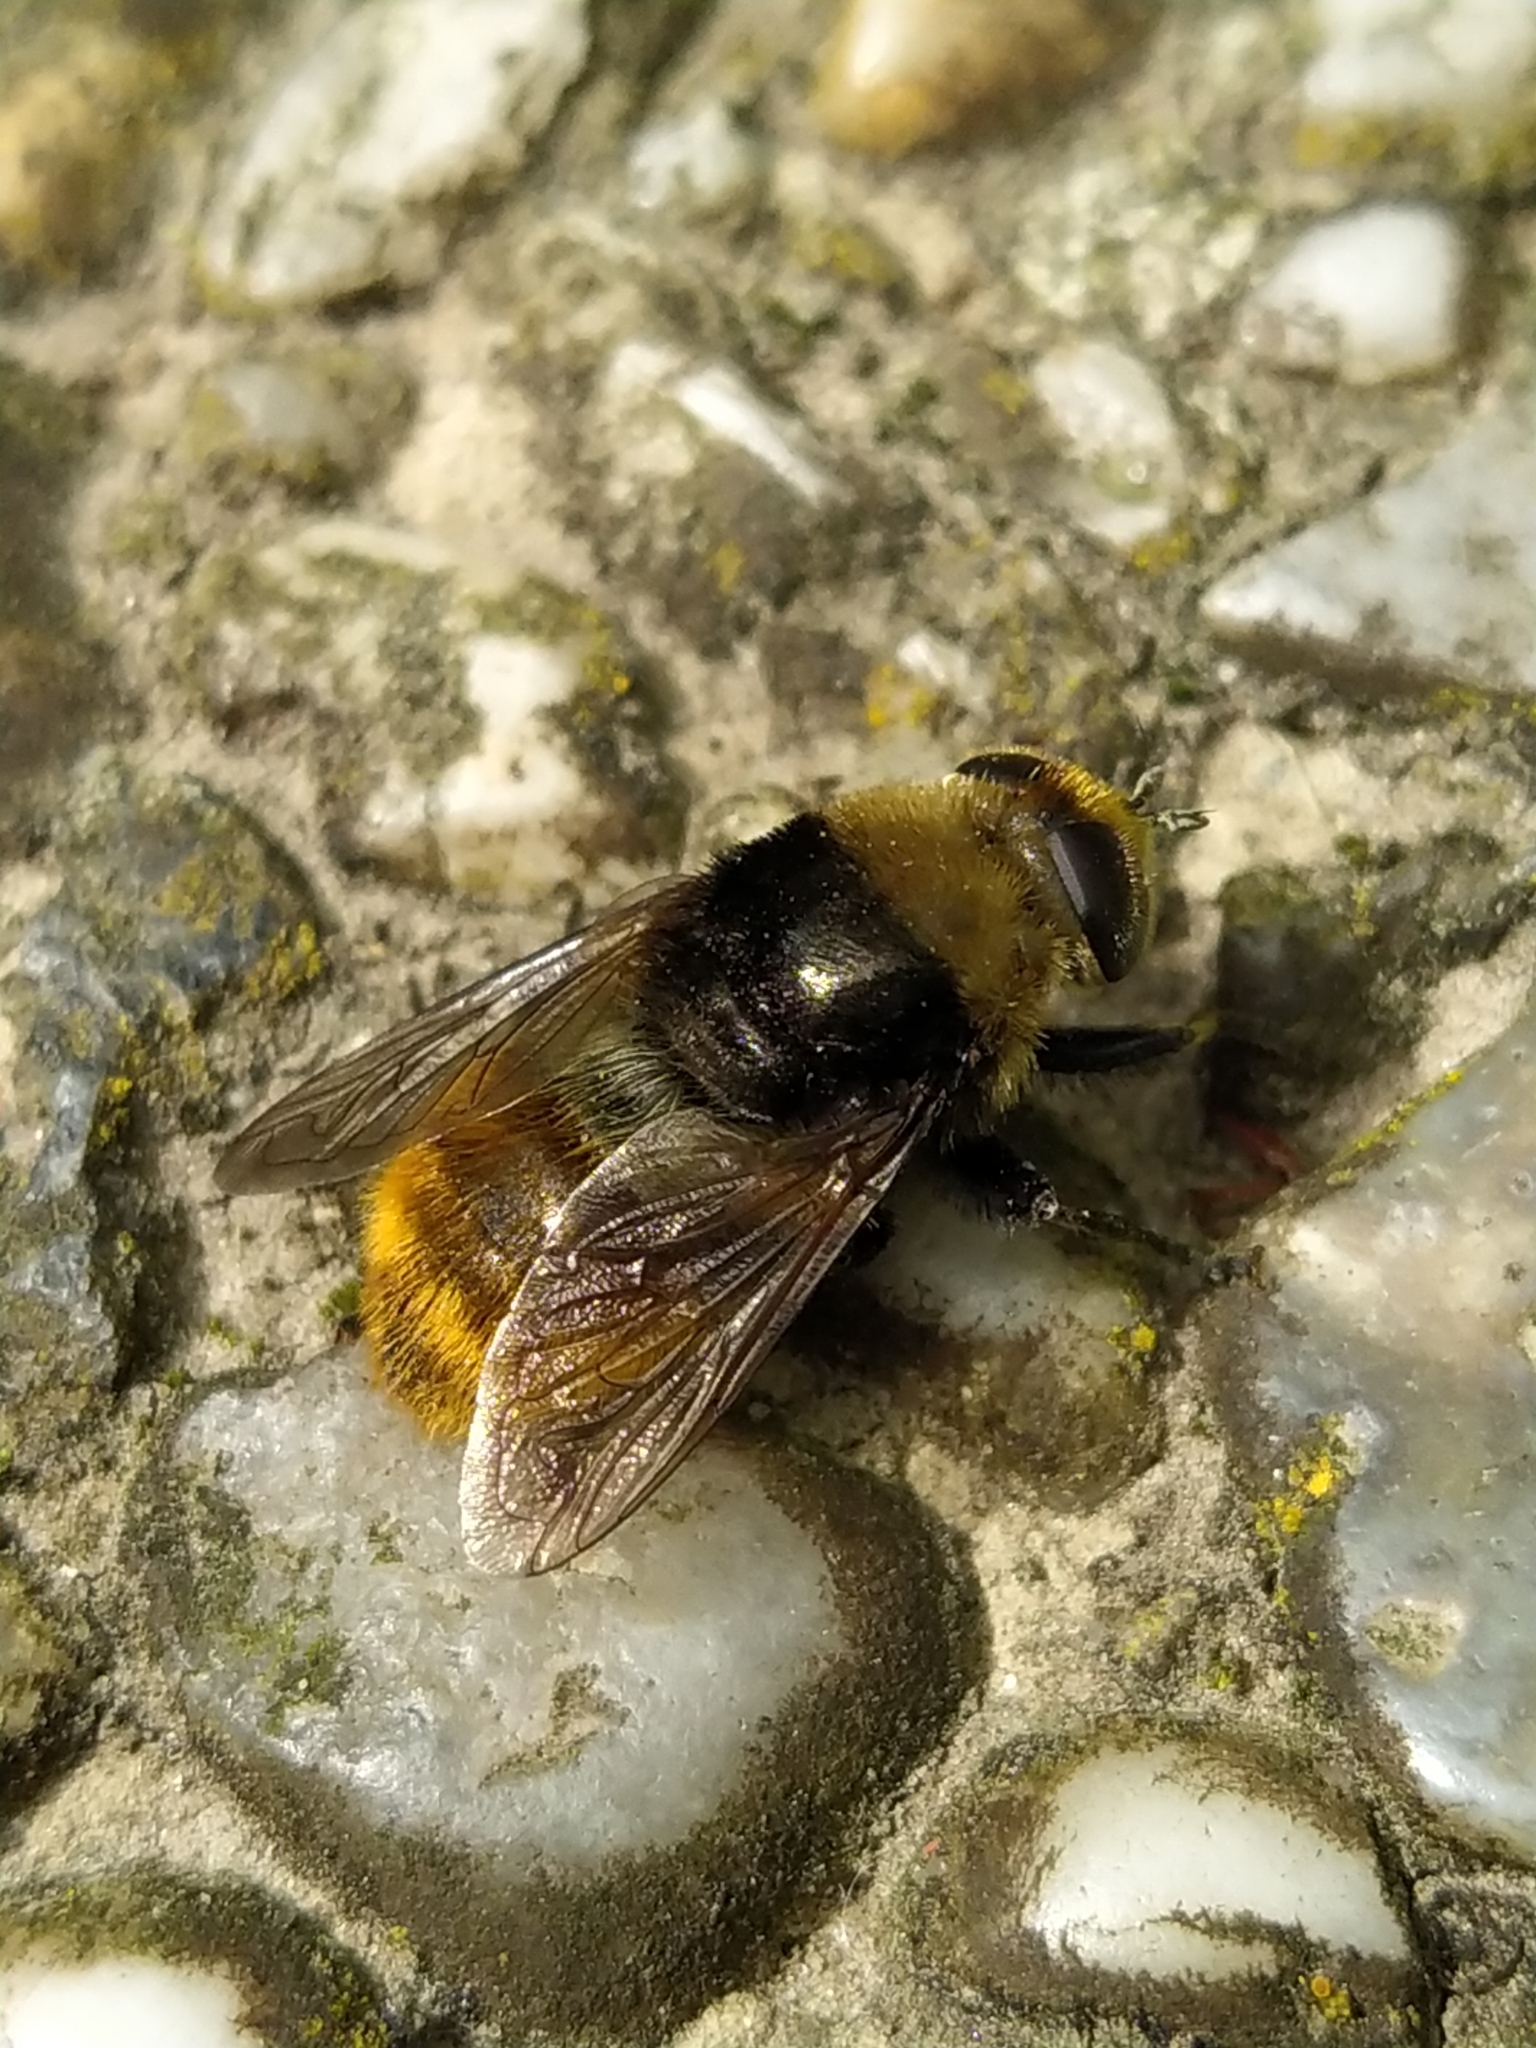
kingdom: Animalia
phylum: Arthropoda
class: Insecta
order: Diptera
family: Syrphidae
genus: Merodon
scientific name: Merodon equestris
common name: Greater bulb-fly
